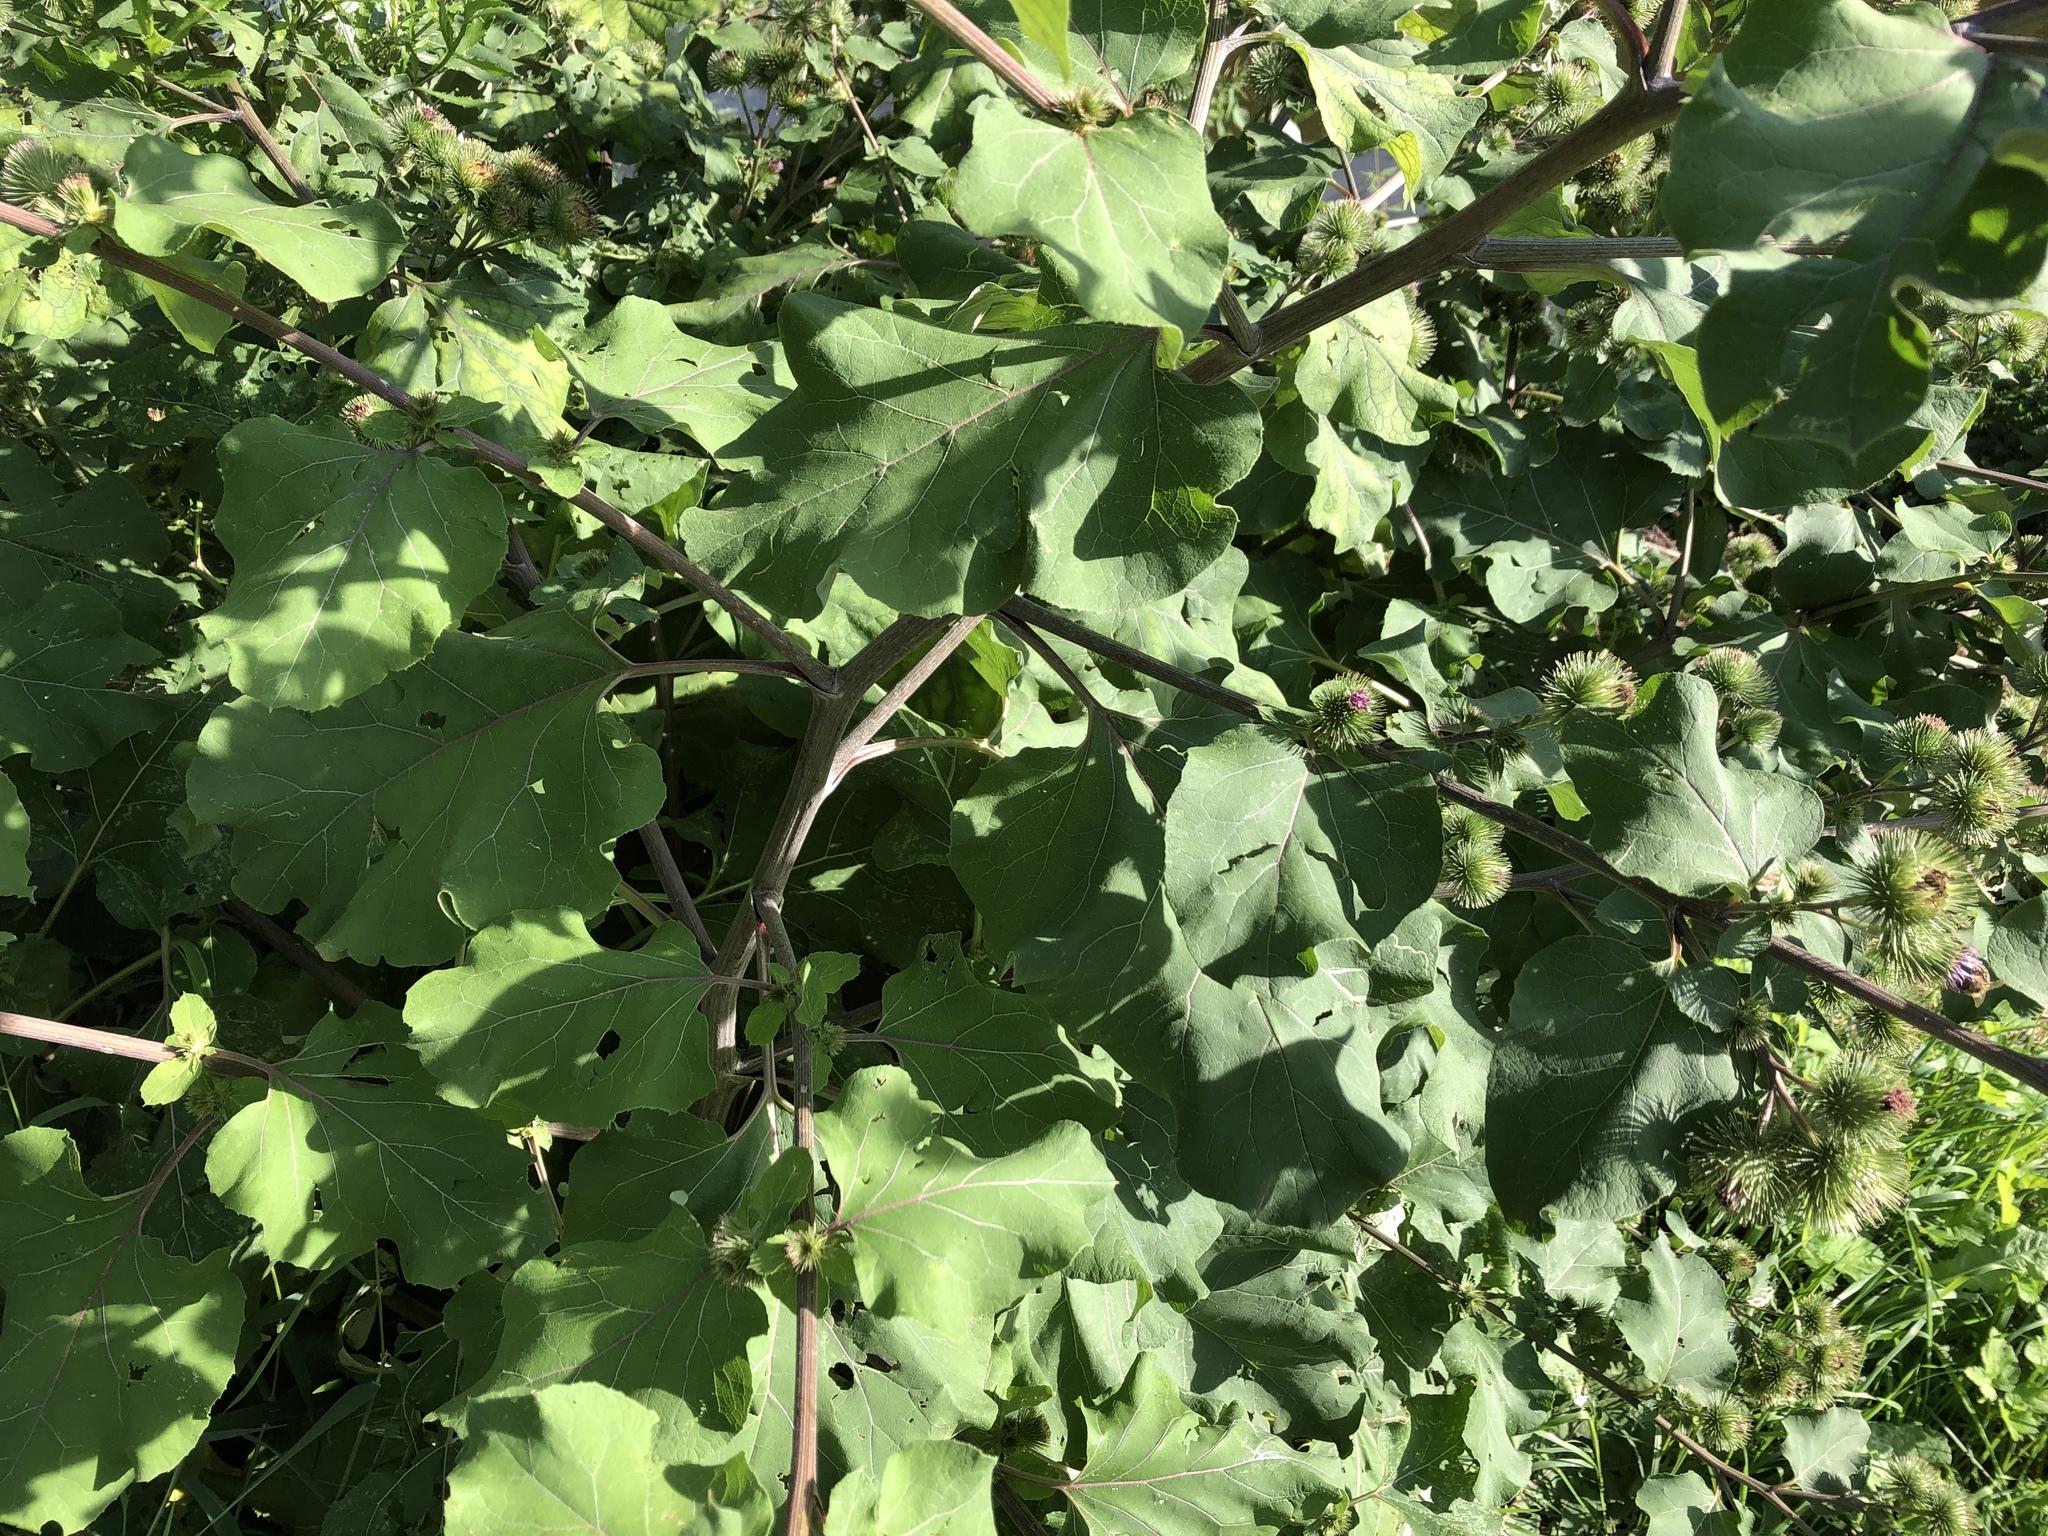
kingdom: Plantae
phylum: Tracheophyta
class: Magnoliopsida
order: Asterales
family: Asteraceae
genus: Arctium
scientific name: Arctium lappa
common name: Greater burdock
